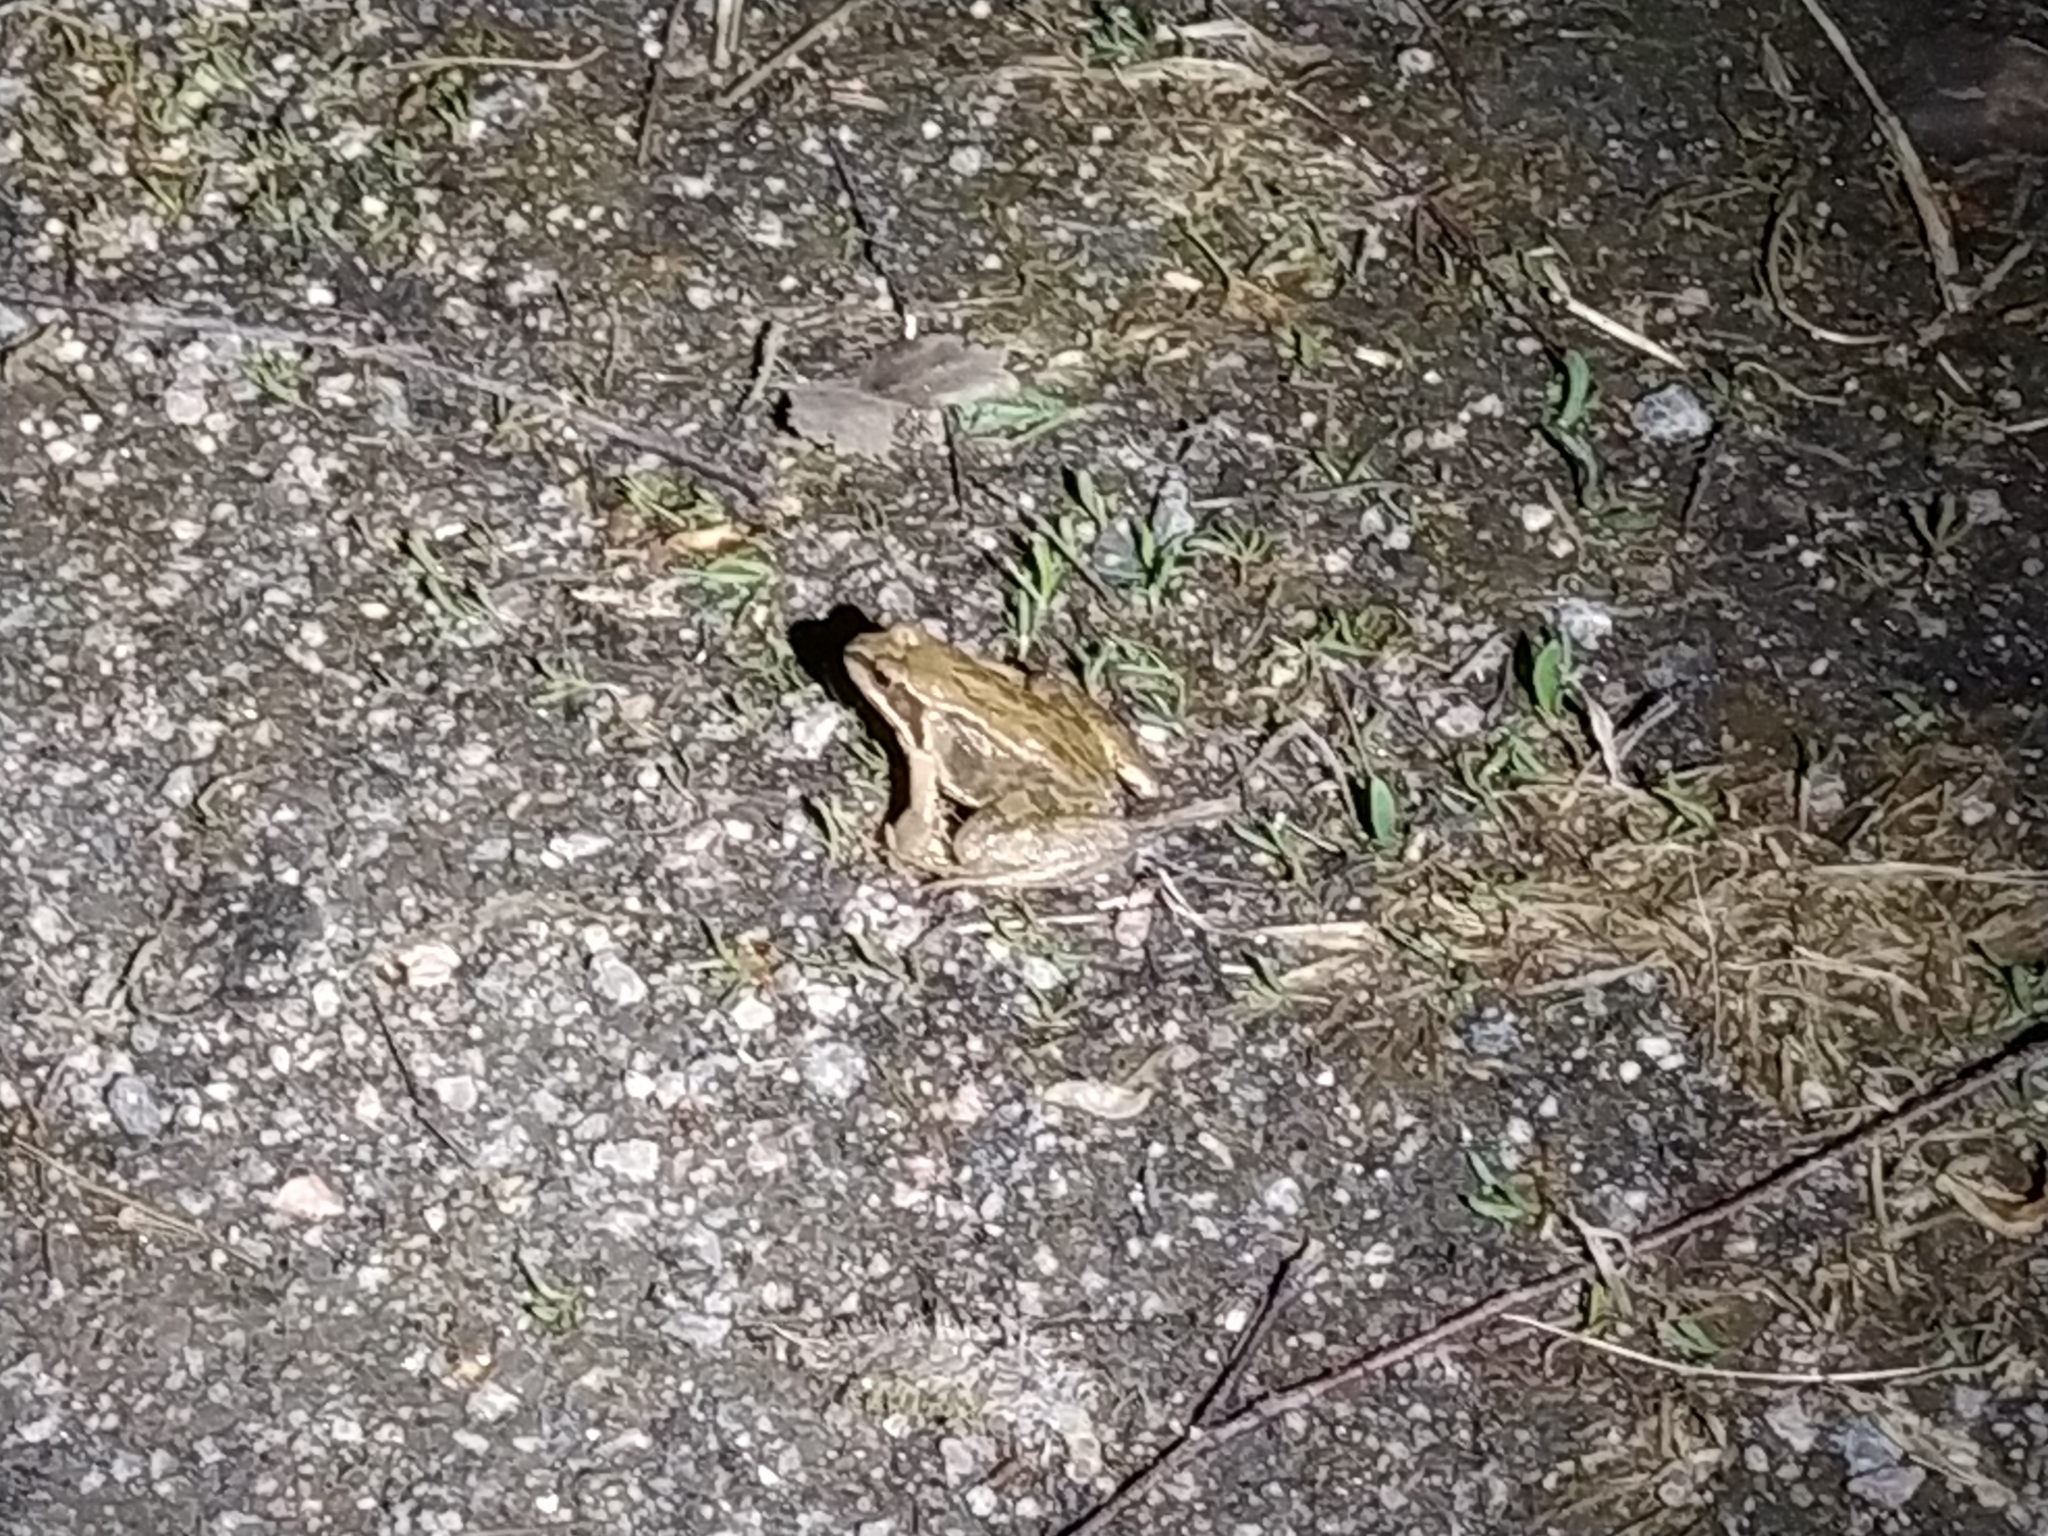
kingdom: Animalia
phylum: Chordata
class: Amphibia
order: Anura
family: Ranidae
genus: Rana
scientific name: Rana temporaria
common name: Common frog
